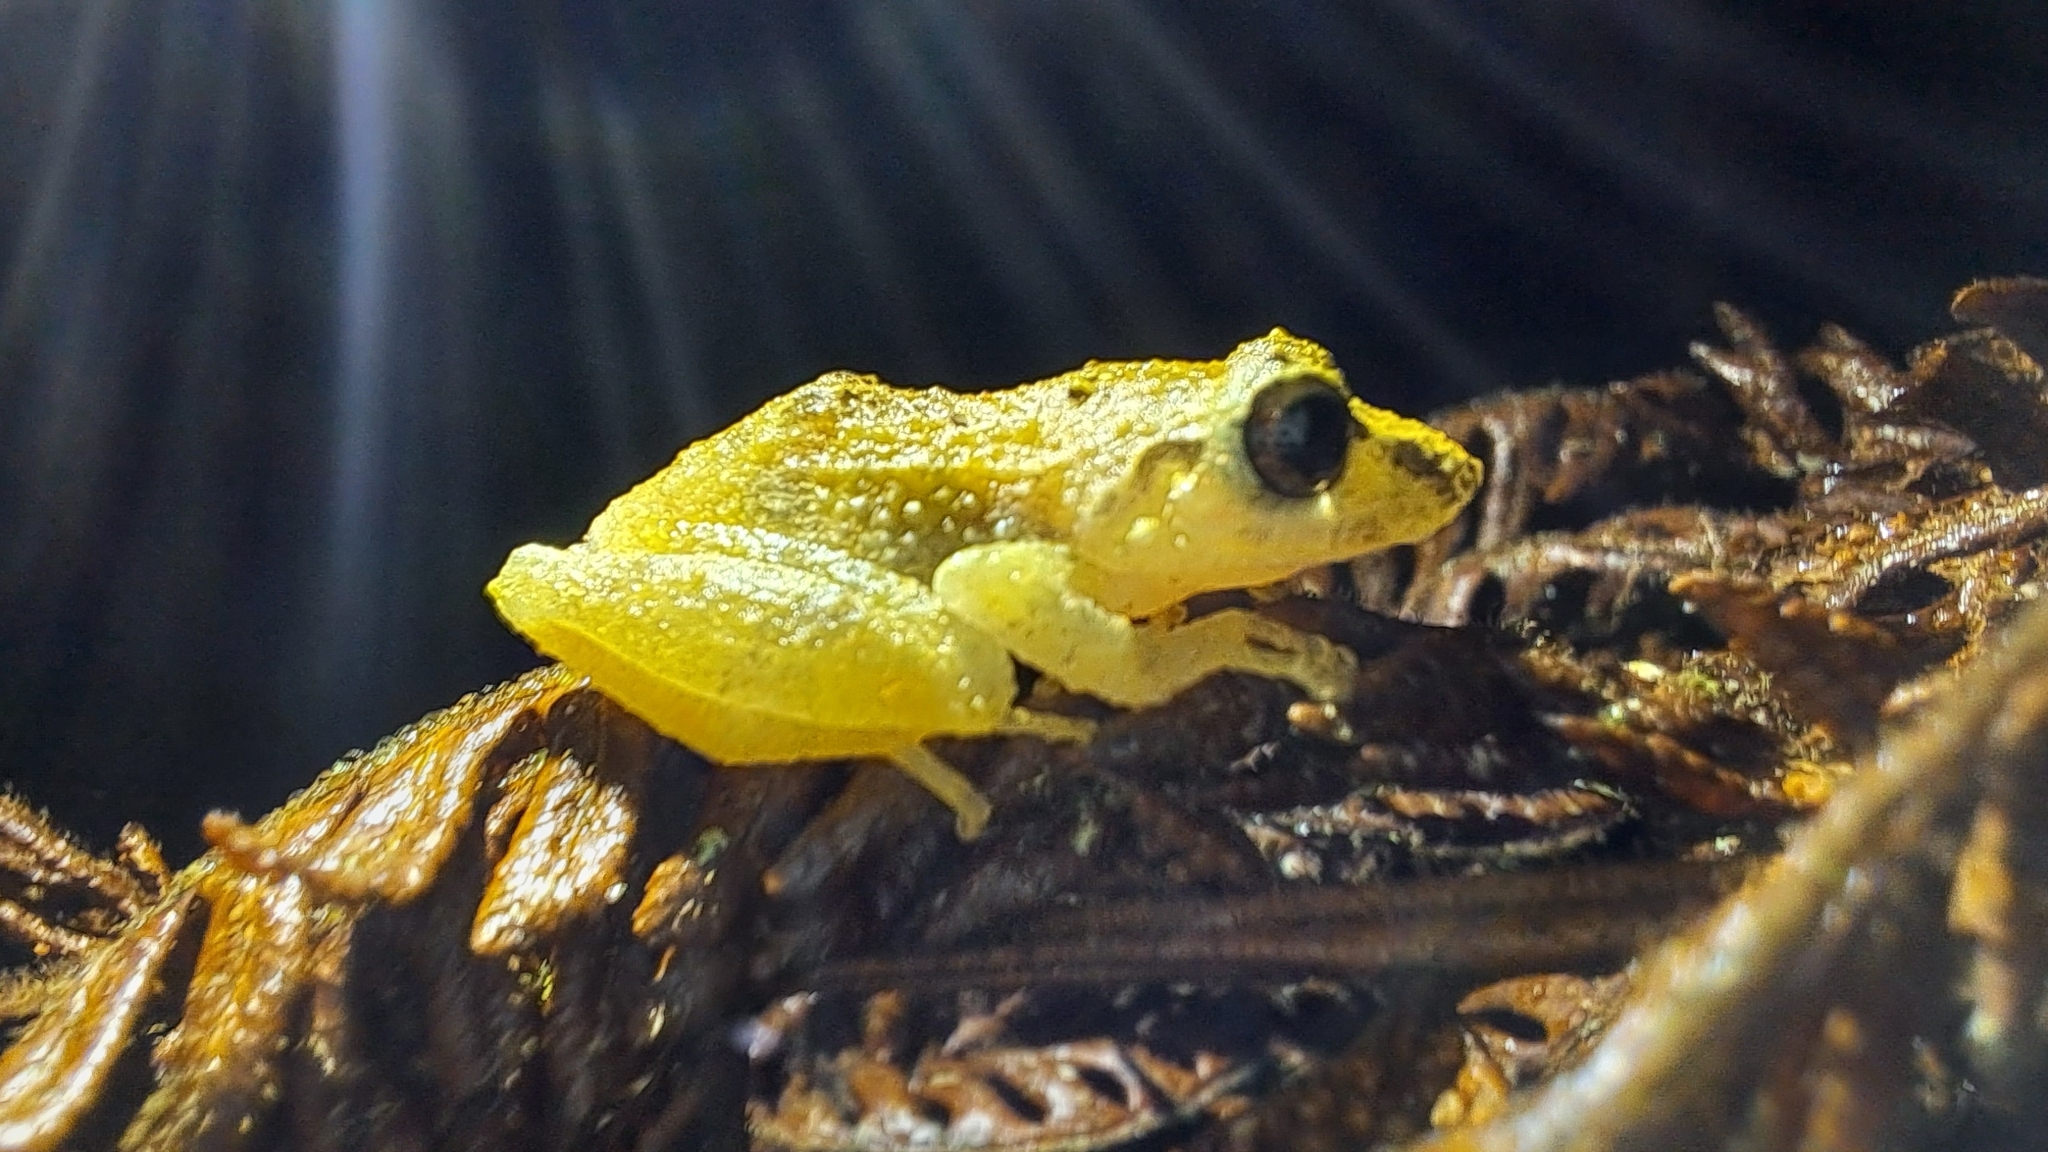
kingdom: Animalia
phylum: Chordata
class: Amphibia
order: Anura
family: Eleutherodactylidae
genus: Diasporus
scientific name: Diasporus diastema
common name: Caretta robber frog
